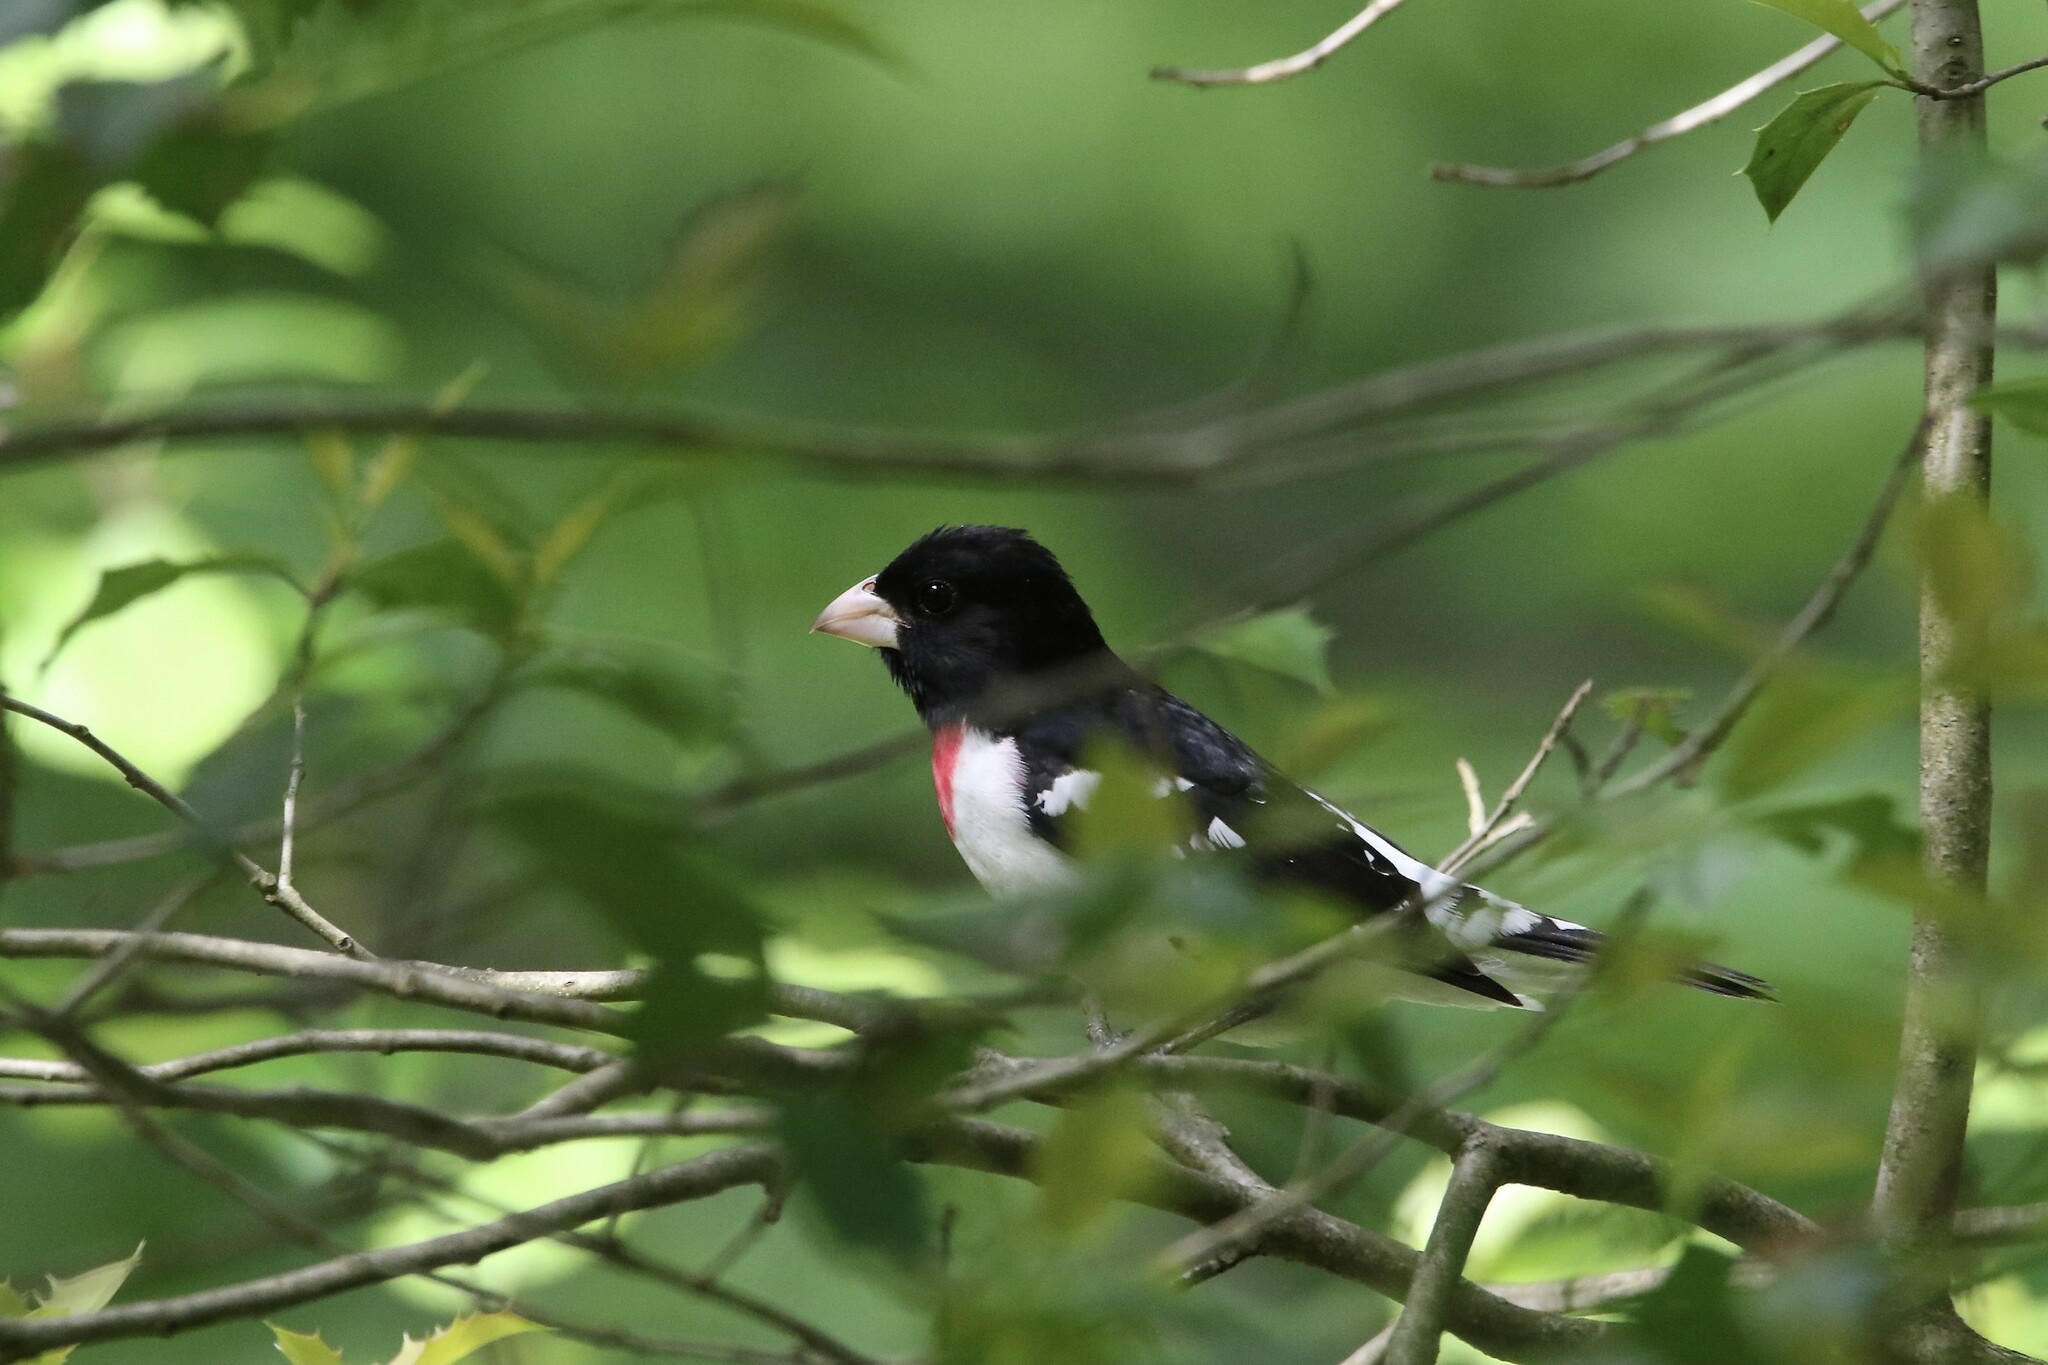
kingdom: Animalia
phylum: Chordata
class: Aves
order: Passeriformes
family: Cardinalidae
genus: Pheucticus
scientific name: Pheucticus ludovicianus
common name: Rose-breasted grosbeak
